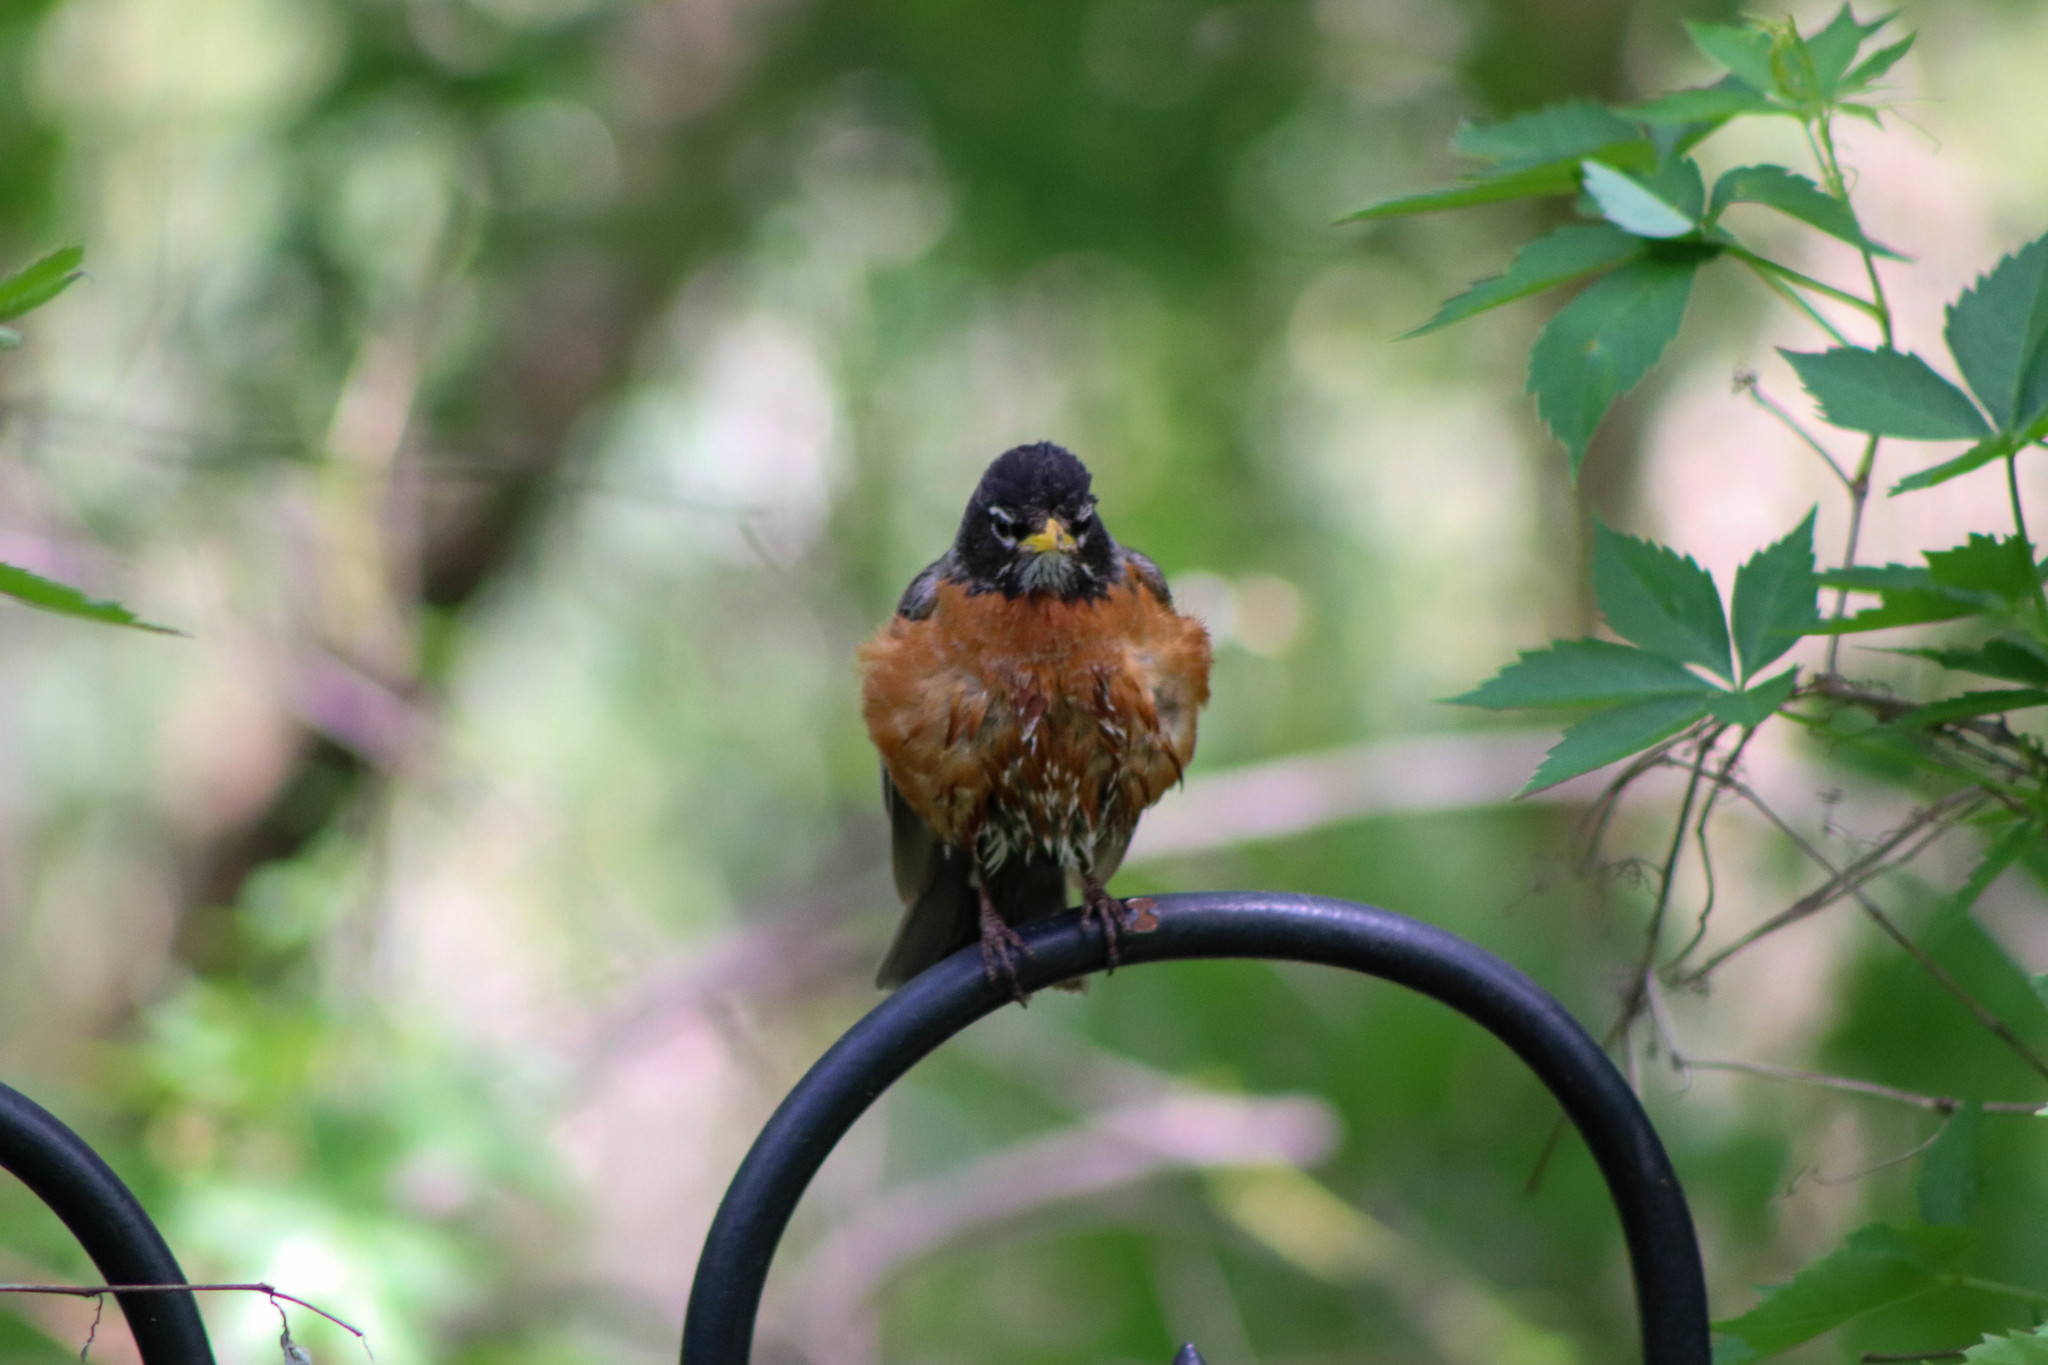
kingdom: Animalia
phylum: Chordata
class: Aves
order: Passeriformes
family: Turdidae
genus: Turdus
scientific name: Turdus migratorius
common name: American robin
